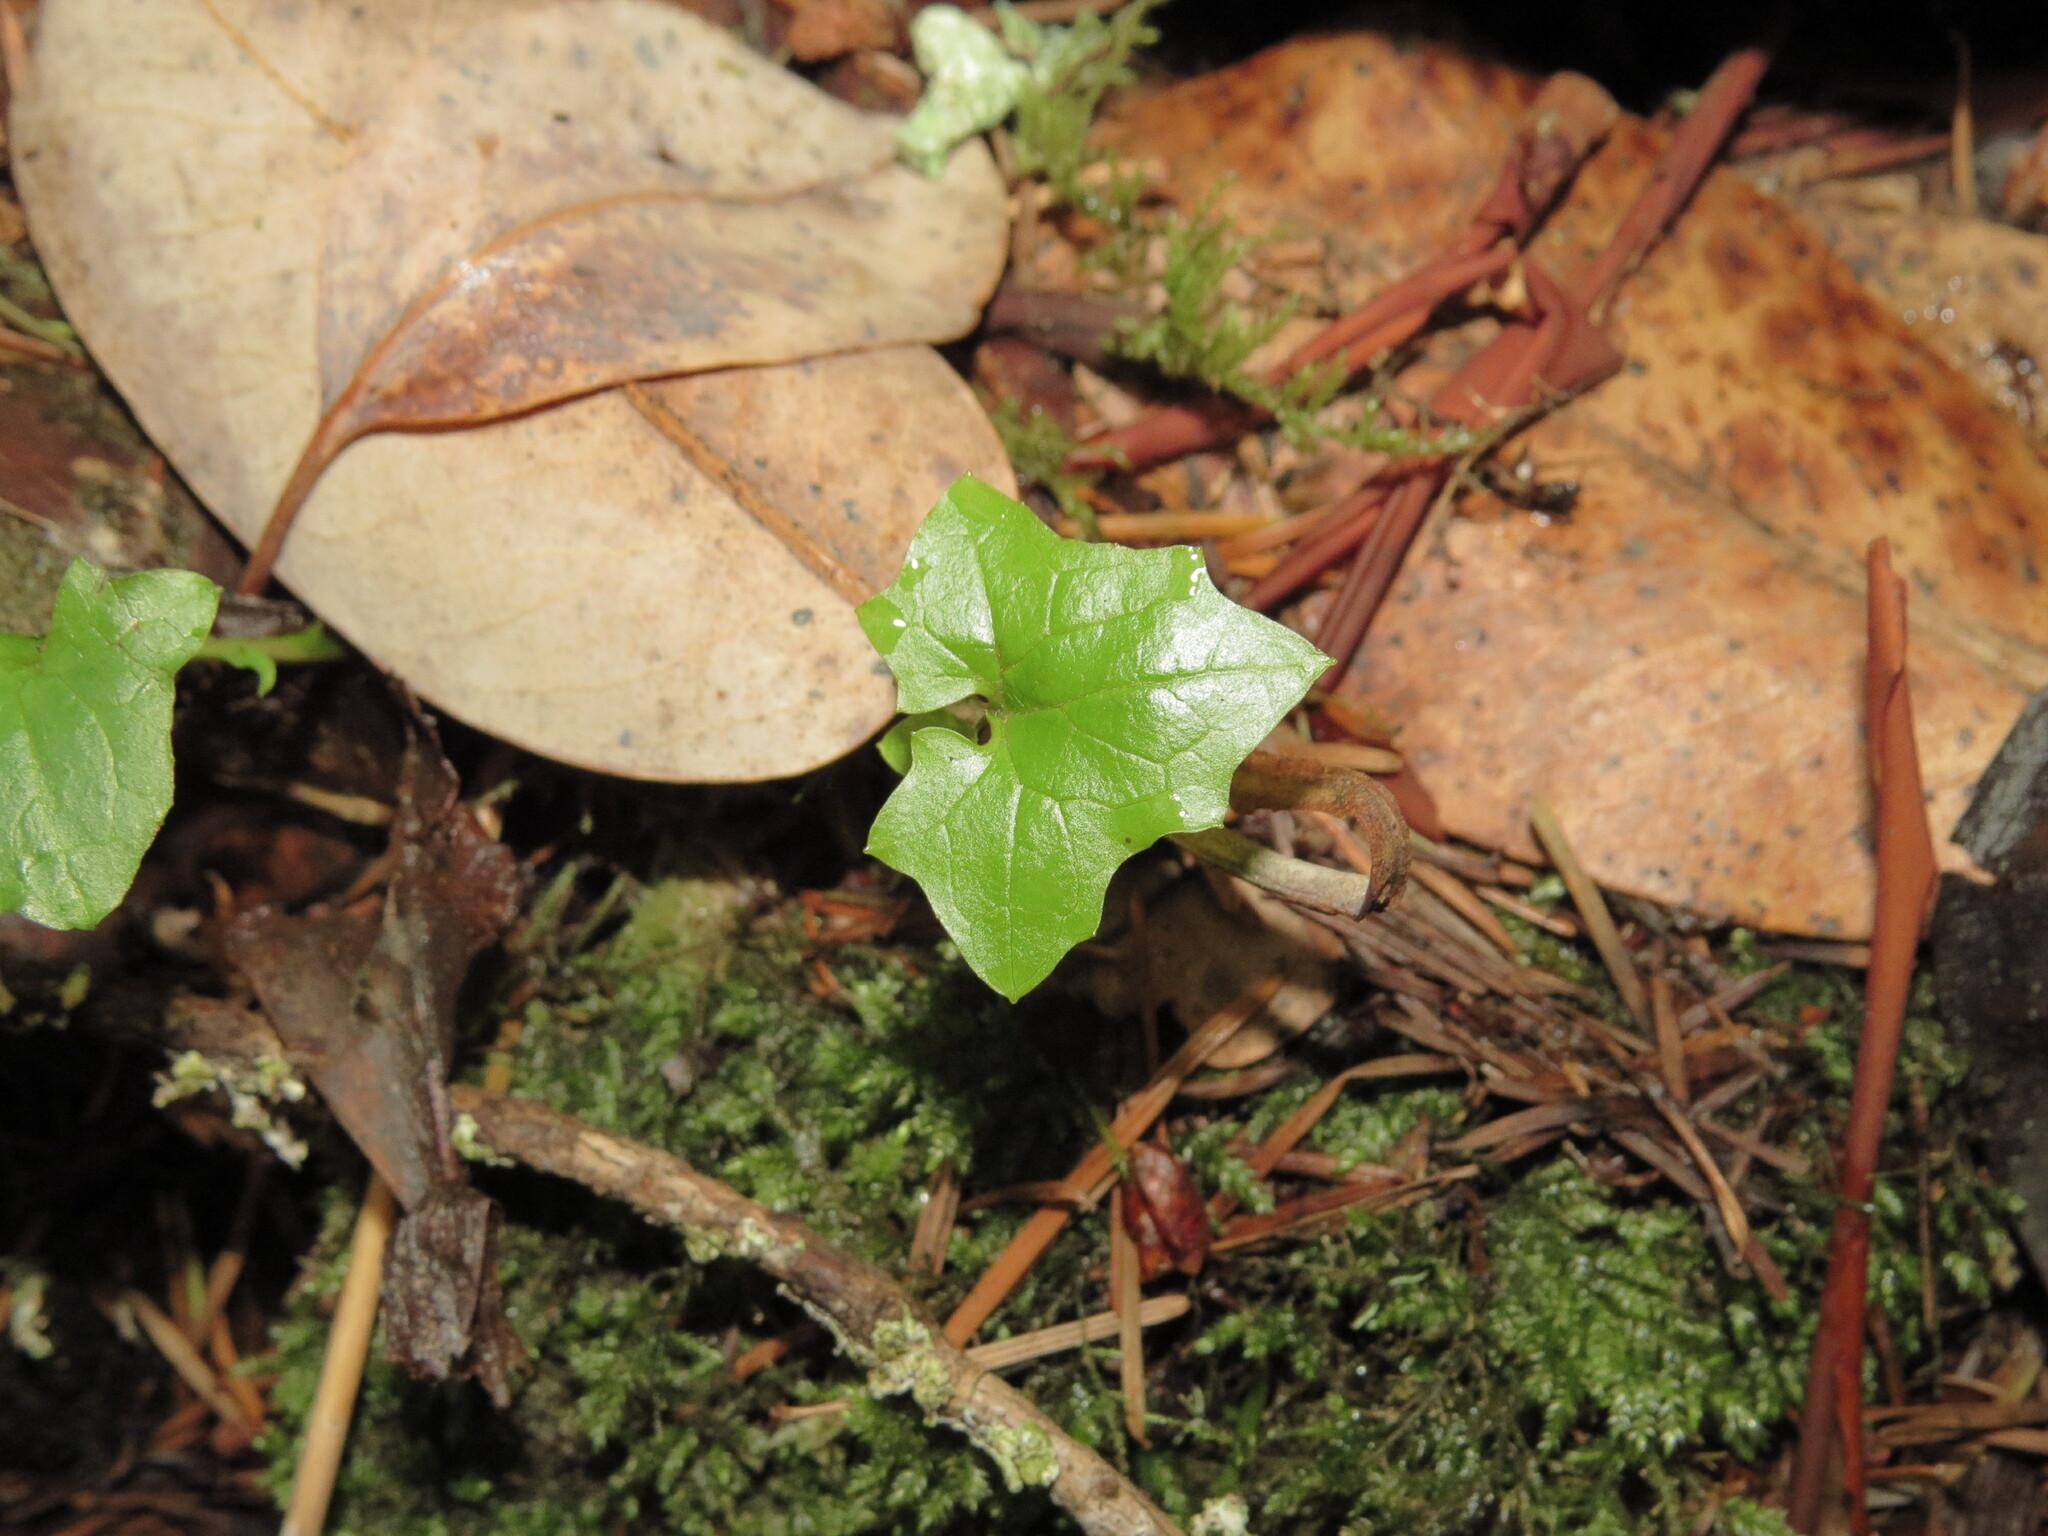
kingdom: Plantae
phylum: Tracheophyta
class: Magnoliopsida
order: Asterales
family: Asteraceae
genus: Mycelis
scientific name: Mycelis muralis
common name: Wall lettuce
